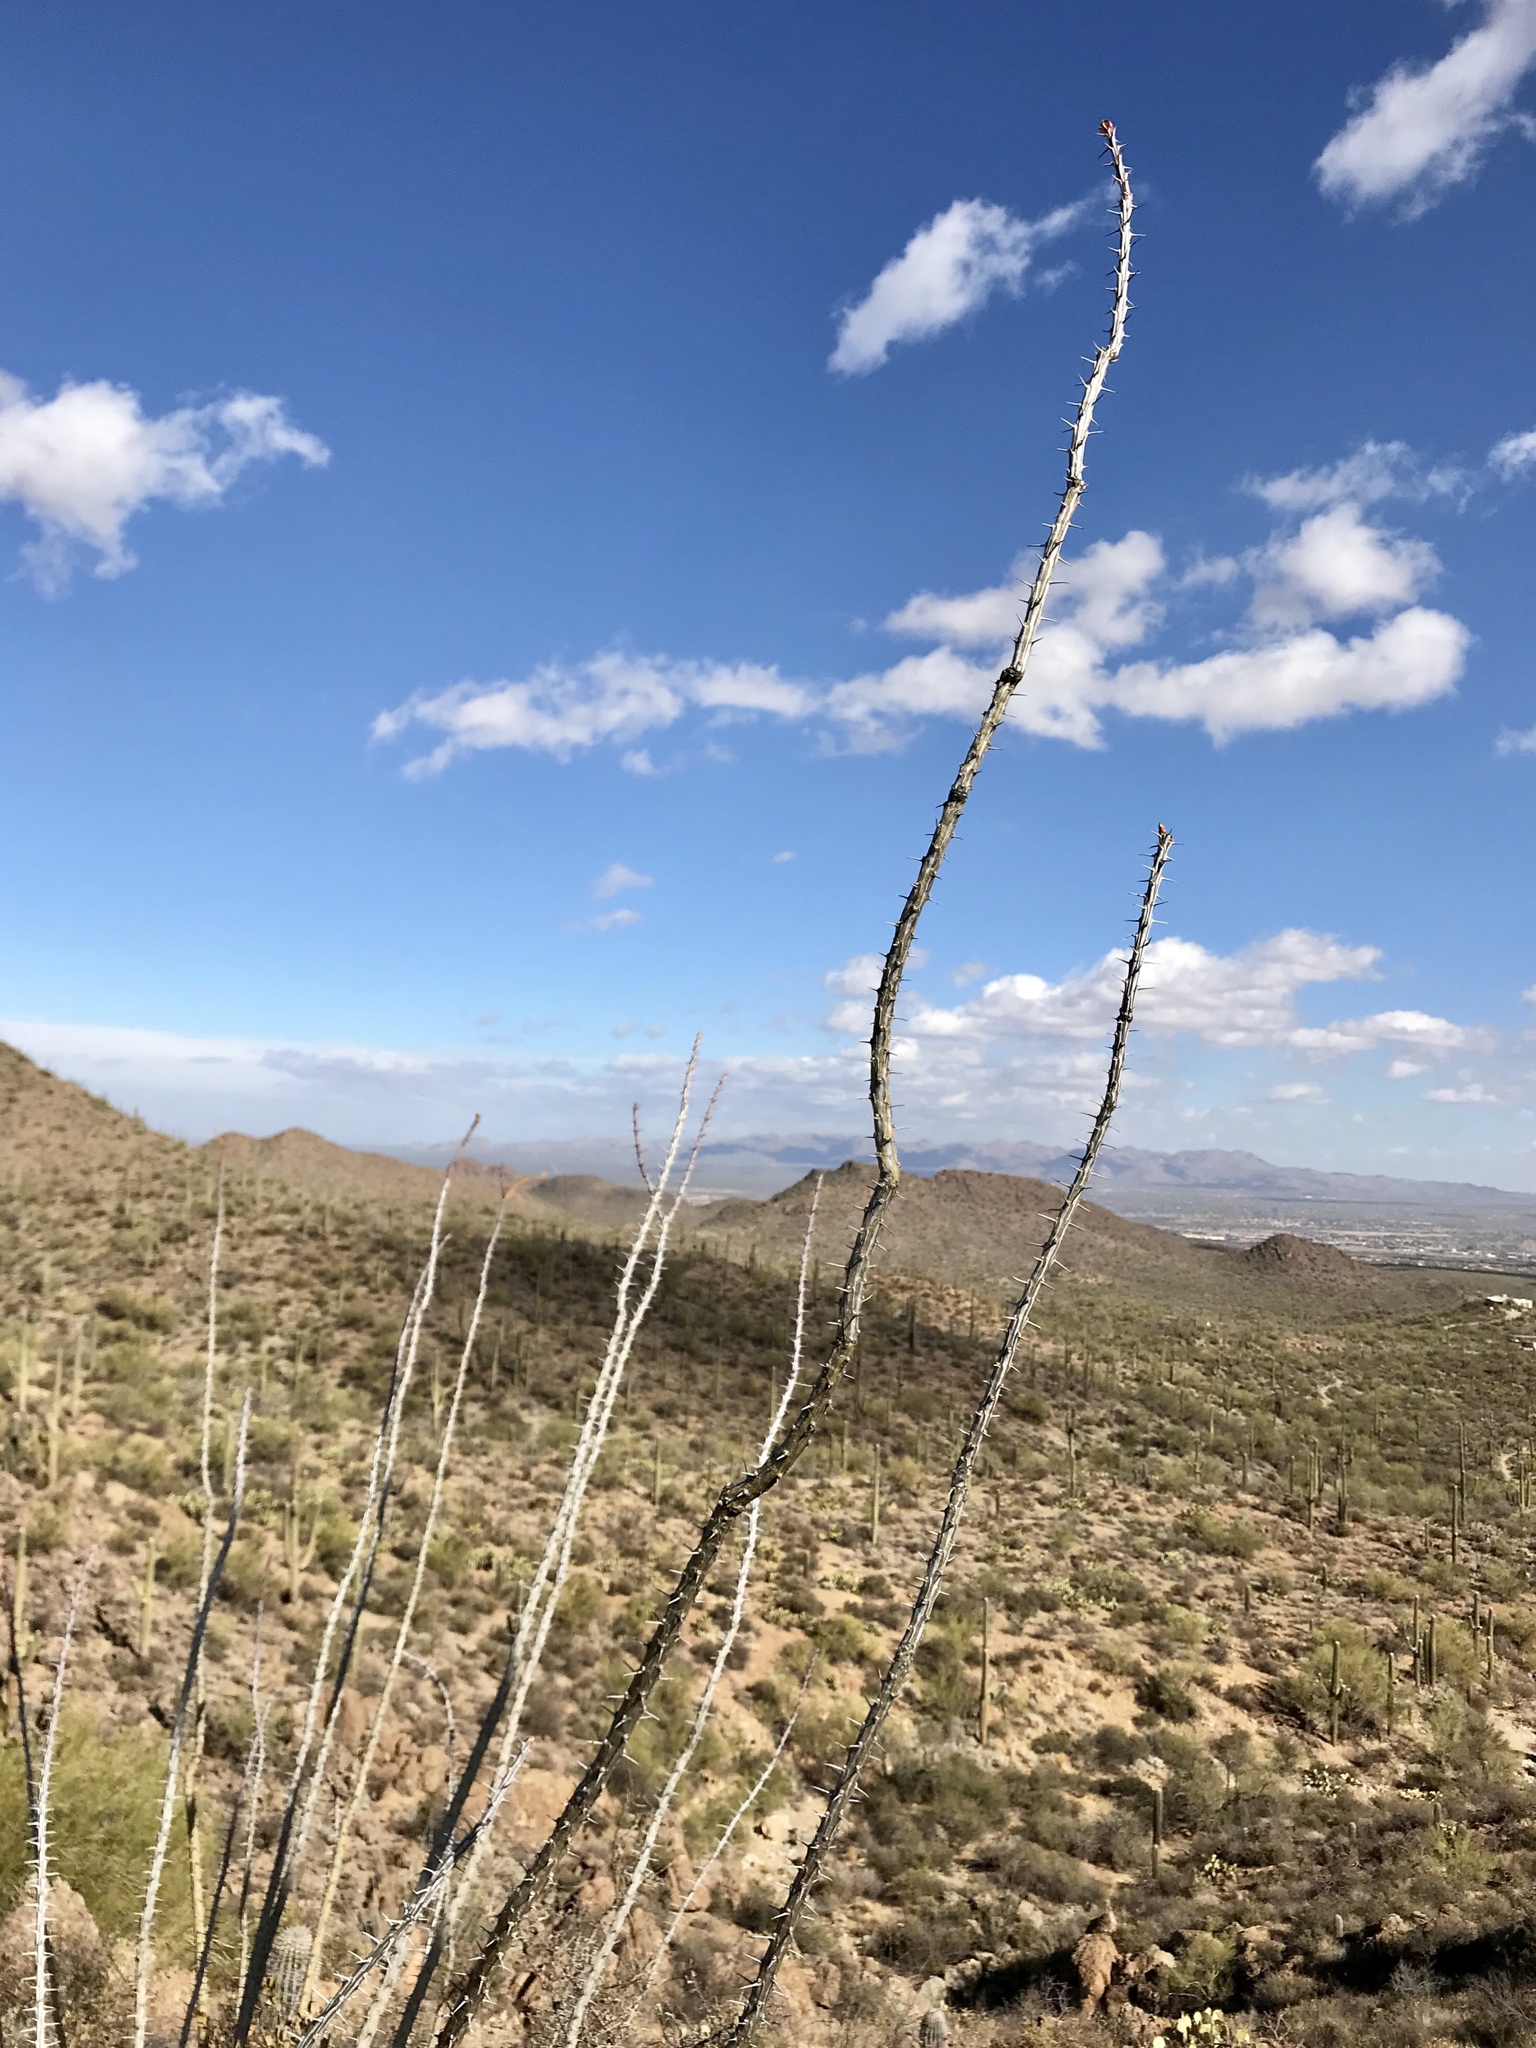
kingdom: Plantae
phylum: Tracheophyta
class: Magnoliopsida
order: Ericales
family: Fouquieriaceae
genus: Fouquieria
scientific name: Fouquieria splendens
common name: Vine-cactus
